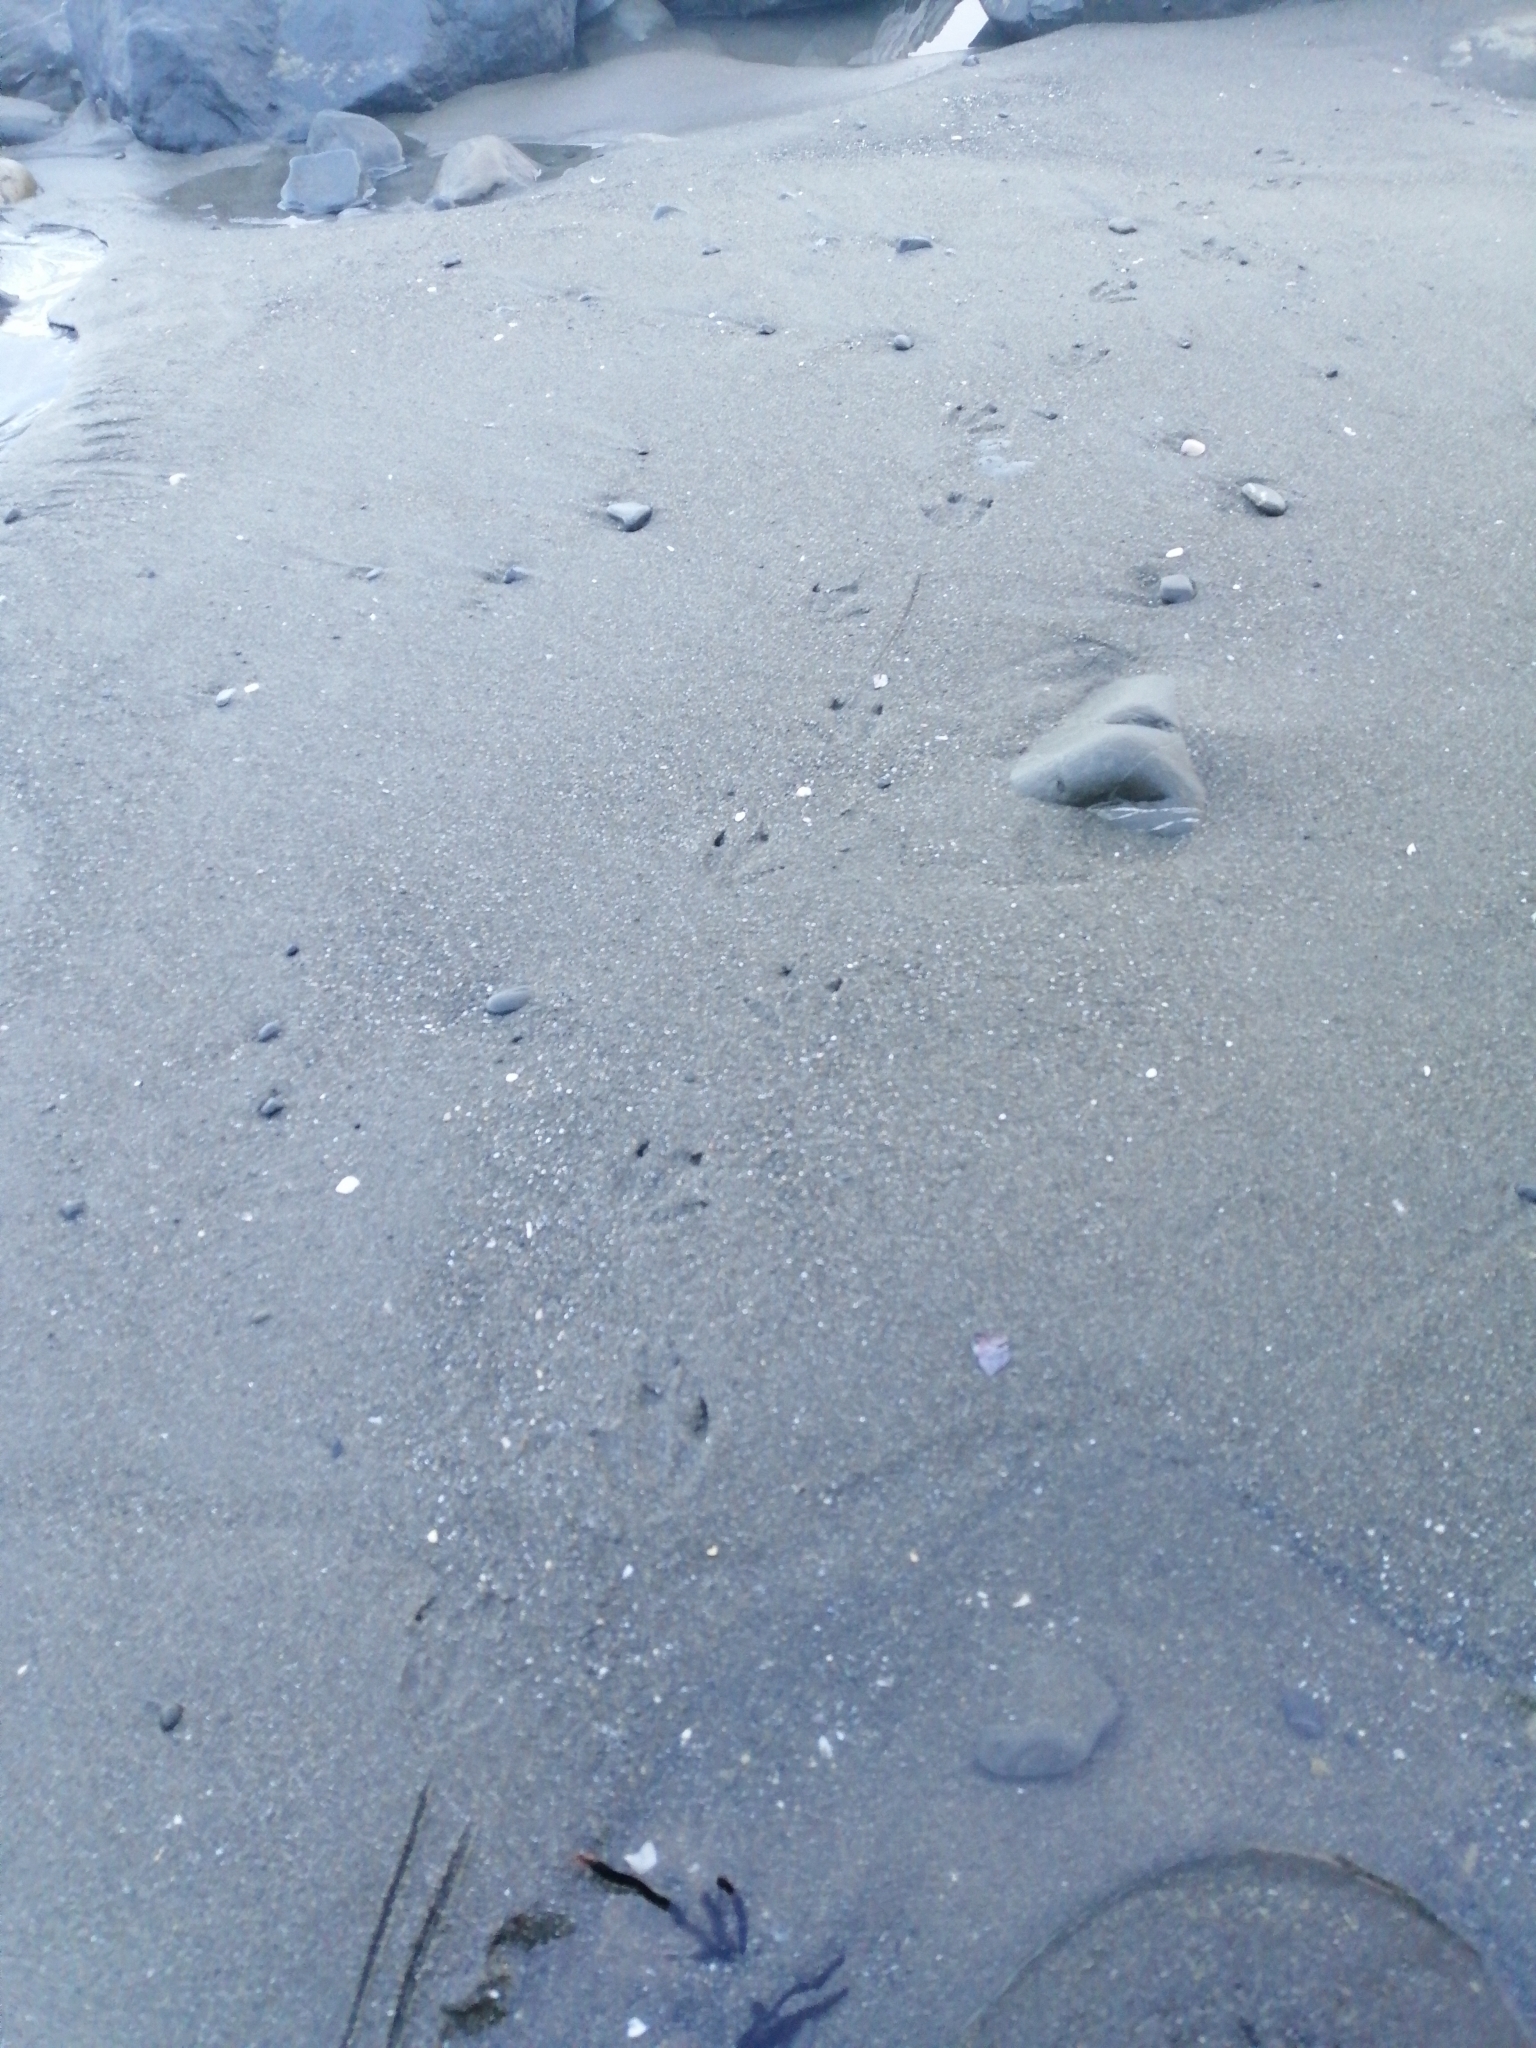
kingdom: Animalia
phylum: Chordata
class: Aves
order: Sphenisciformes
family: Spheniscidae
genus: Eudyptula
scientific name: Eudyptula minor
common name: Little penguin
